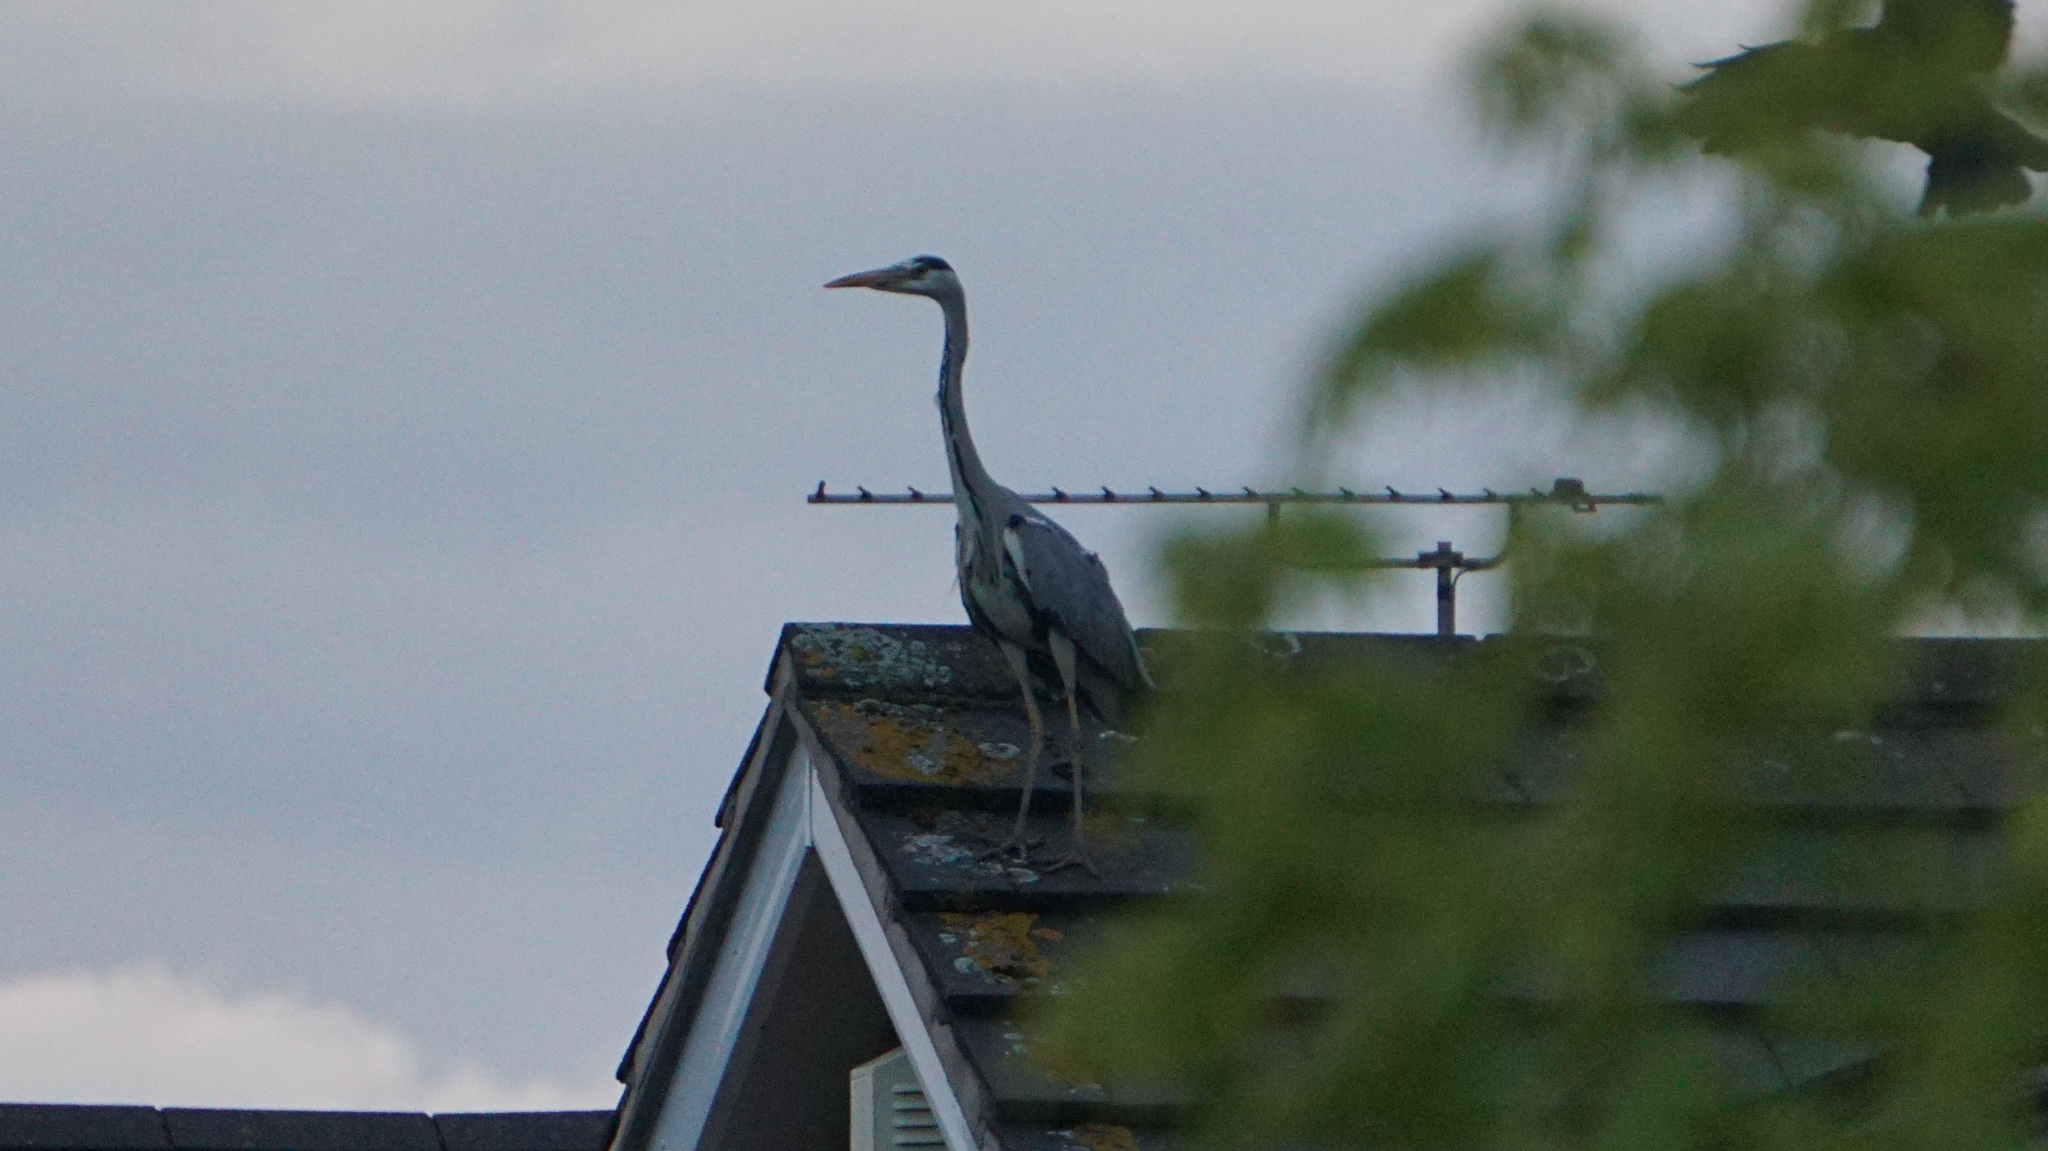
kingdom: Animalia
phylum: Chordata
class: Aves
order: Pelecaniformes
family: Ardeidae
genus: Ardea
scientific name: Ardea cinerea
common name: Grey heron
